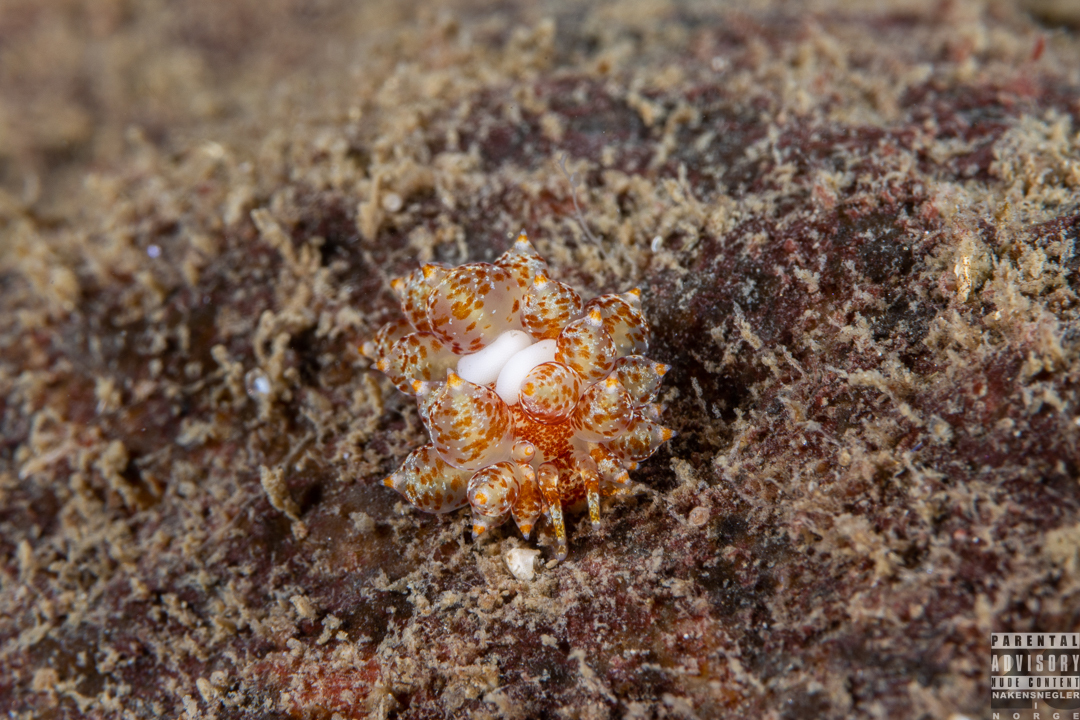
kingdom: Animalia
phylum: Mollusca
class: Gastropoda
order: Nudibranchia
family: Eubranchidae
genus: Amphorina
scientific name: Amphorina pallida
